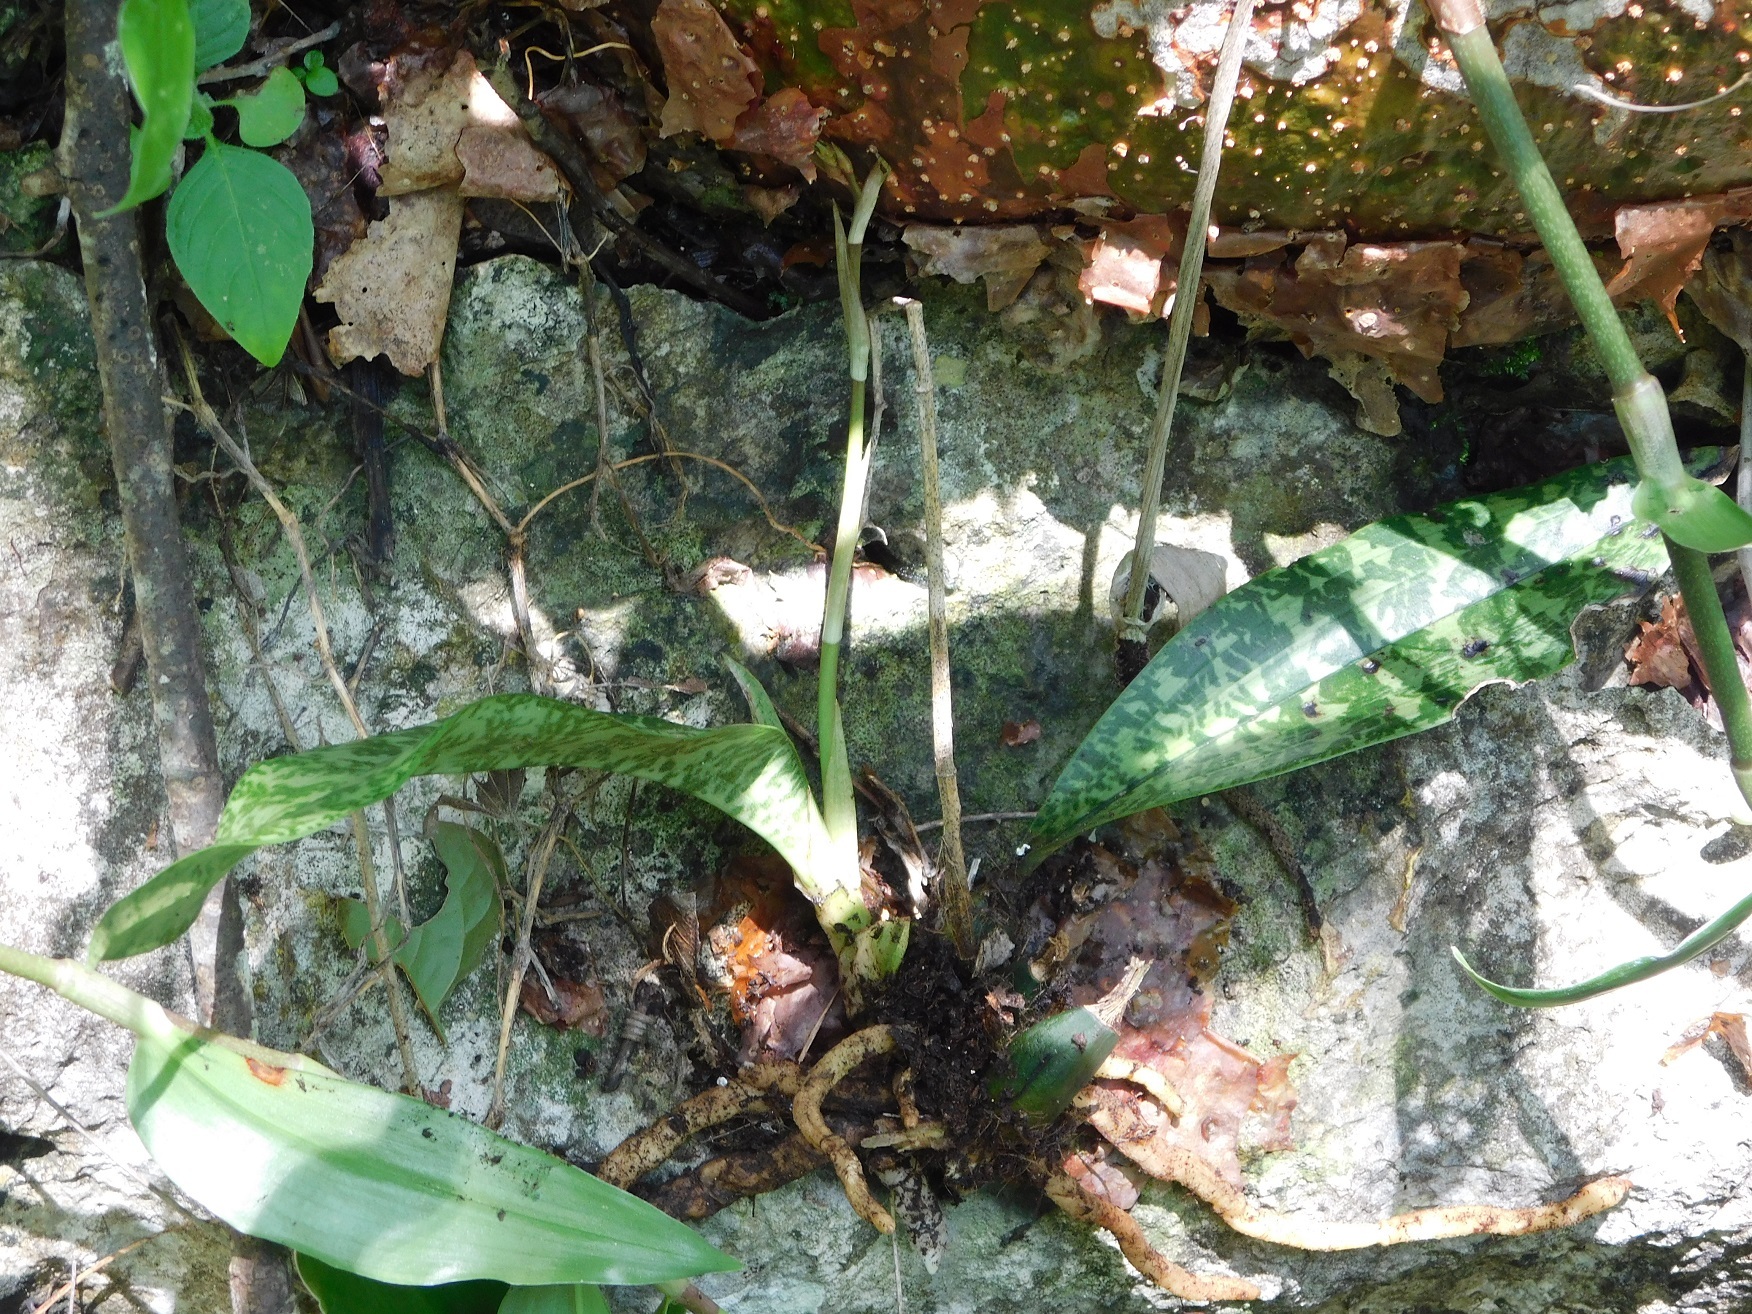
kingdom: Plantae
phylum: Tracheophyta
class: Liliopsida
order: Asparagales
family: Orchidaceae
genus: Eulophia
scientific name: Eulophia maculata
